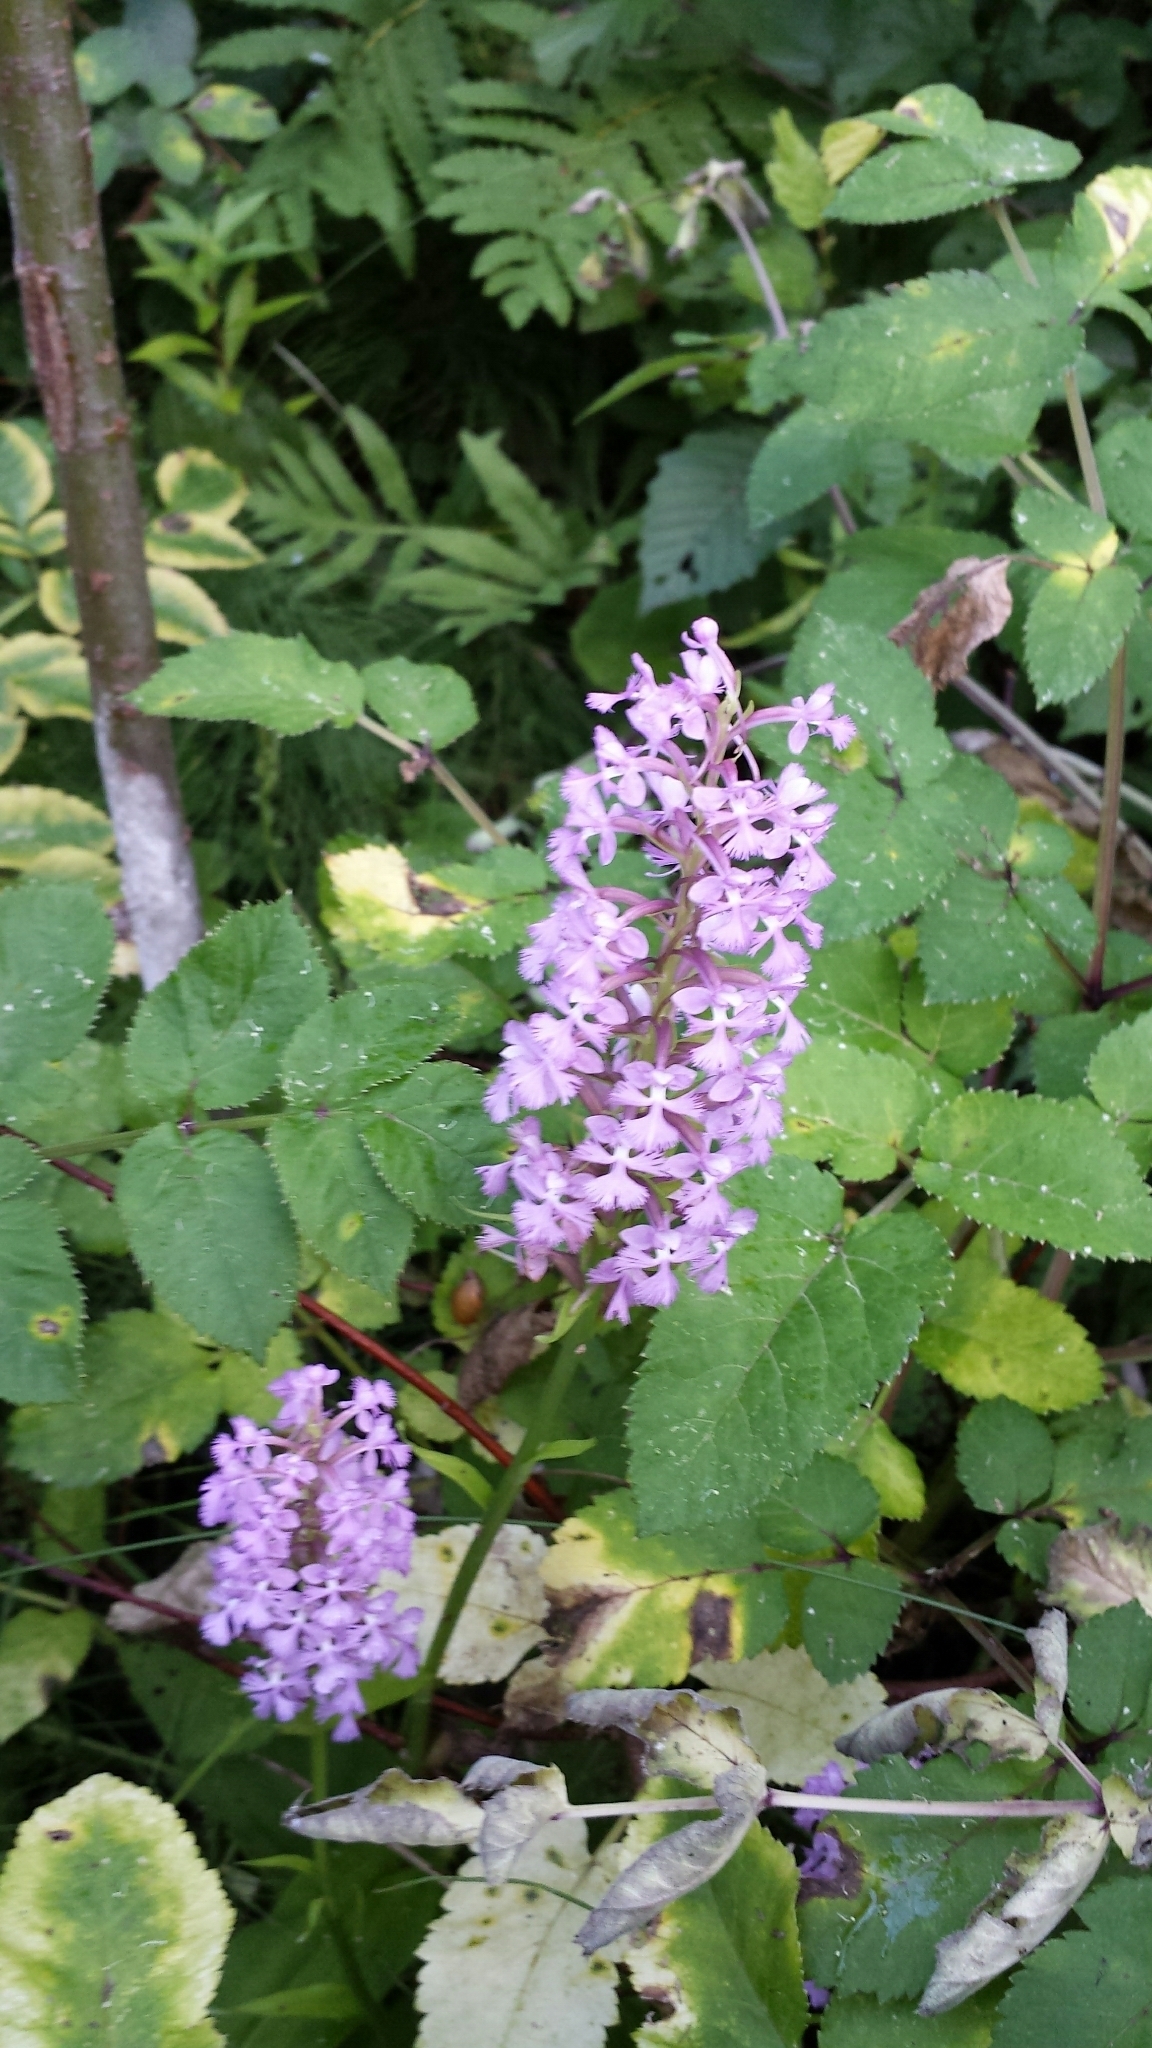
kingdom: Plantae
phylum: Tracheophyta
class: Liliopsida
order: Asparagales
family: Orchidaceae
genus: Platanthera
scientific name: Platanthera psycodes
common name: Lesser purple fringed orchid
